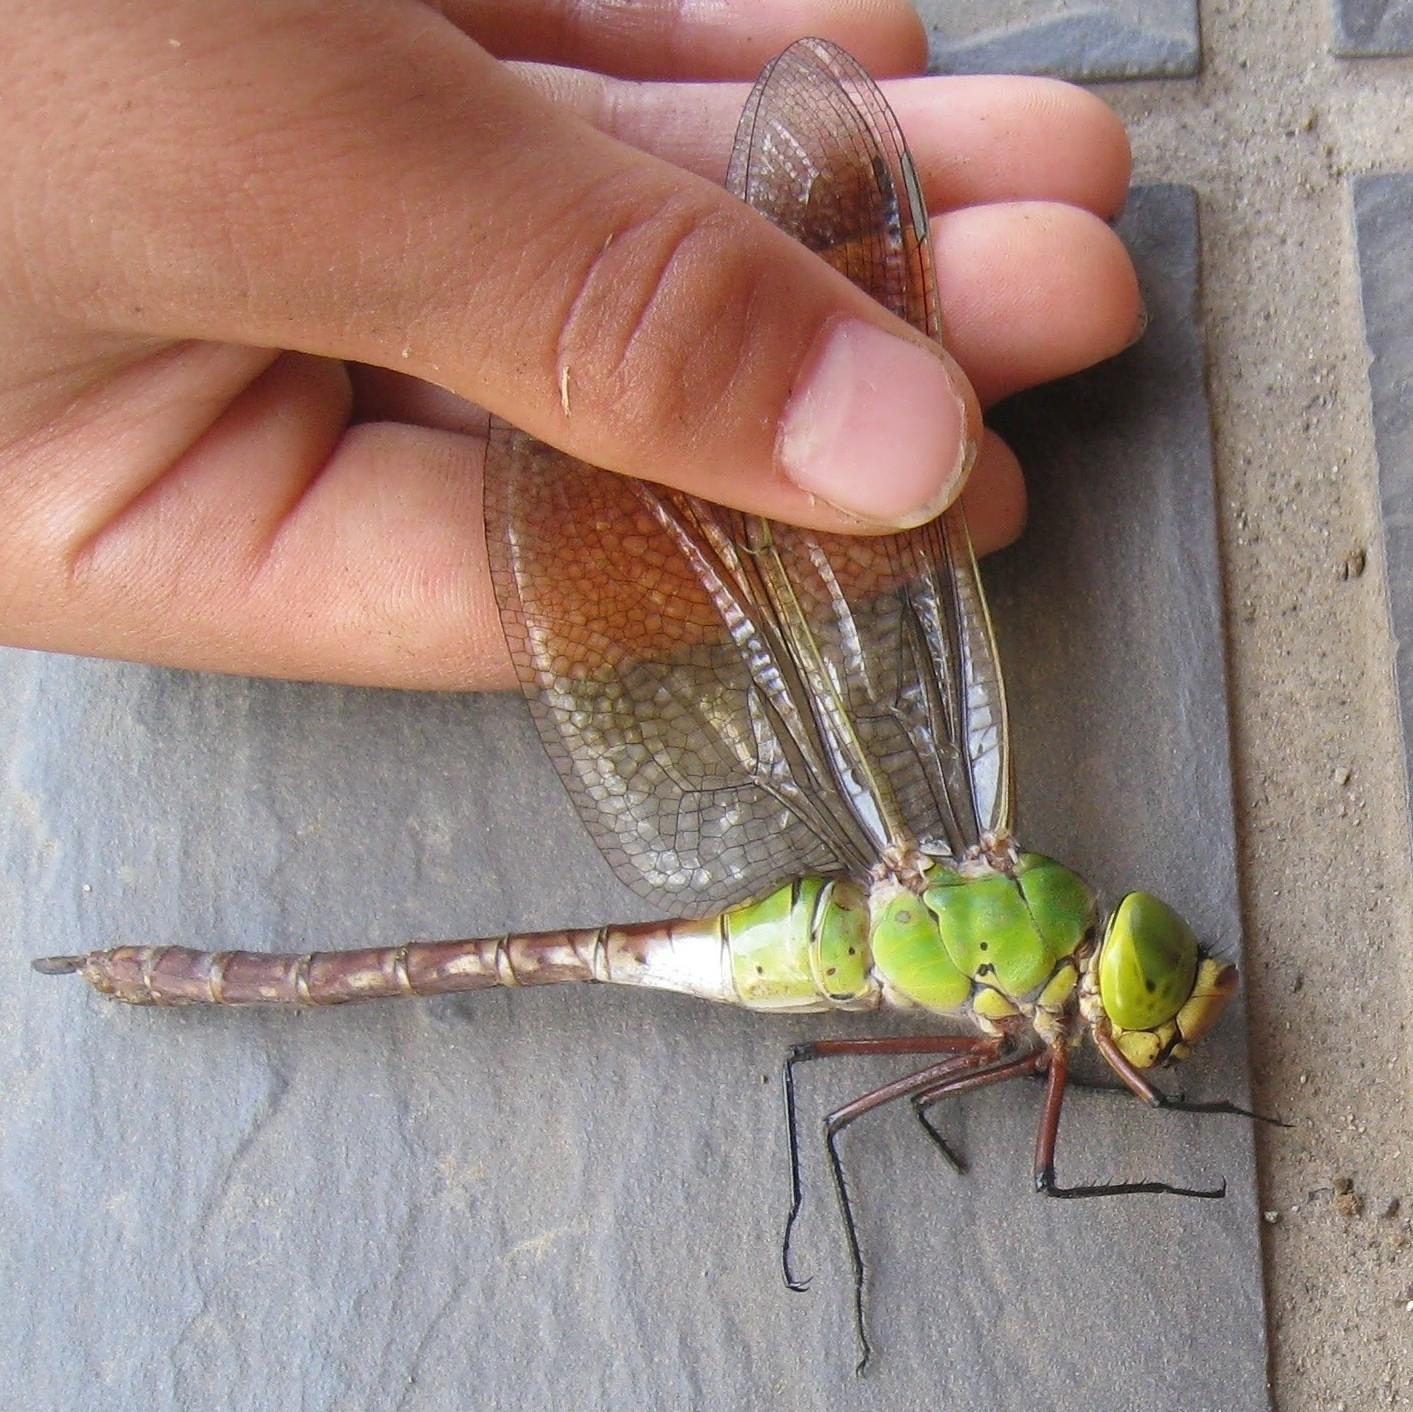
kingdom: Animalia
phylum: Arthropoda
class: Insecta
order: Odonata
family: Aeshnidae
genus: Anax
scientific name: Anax julius
